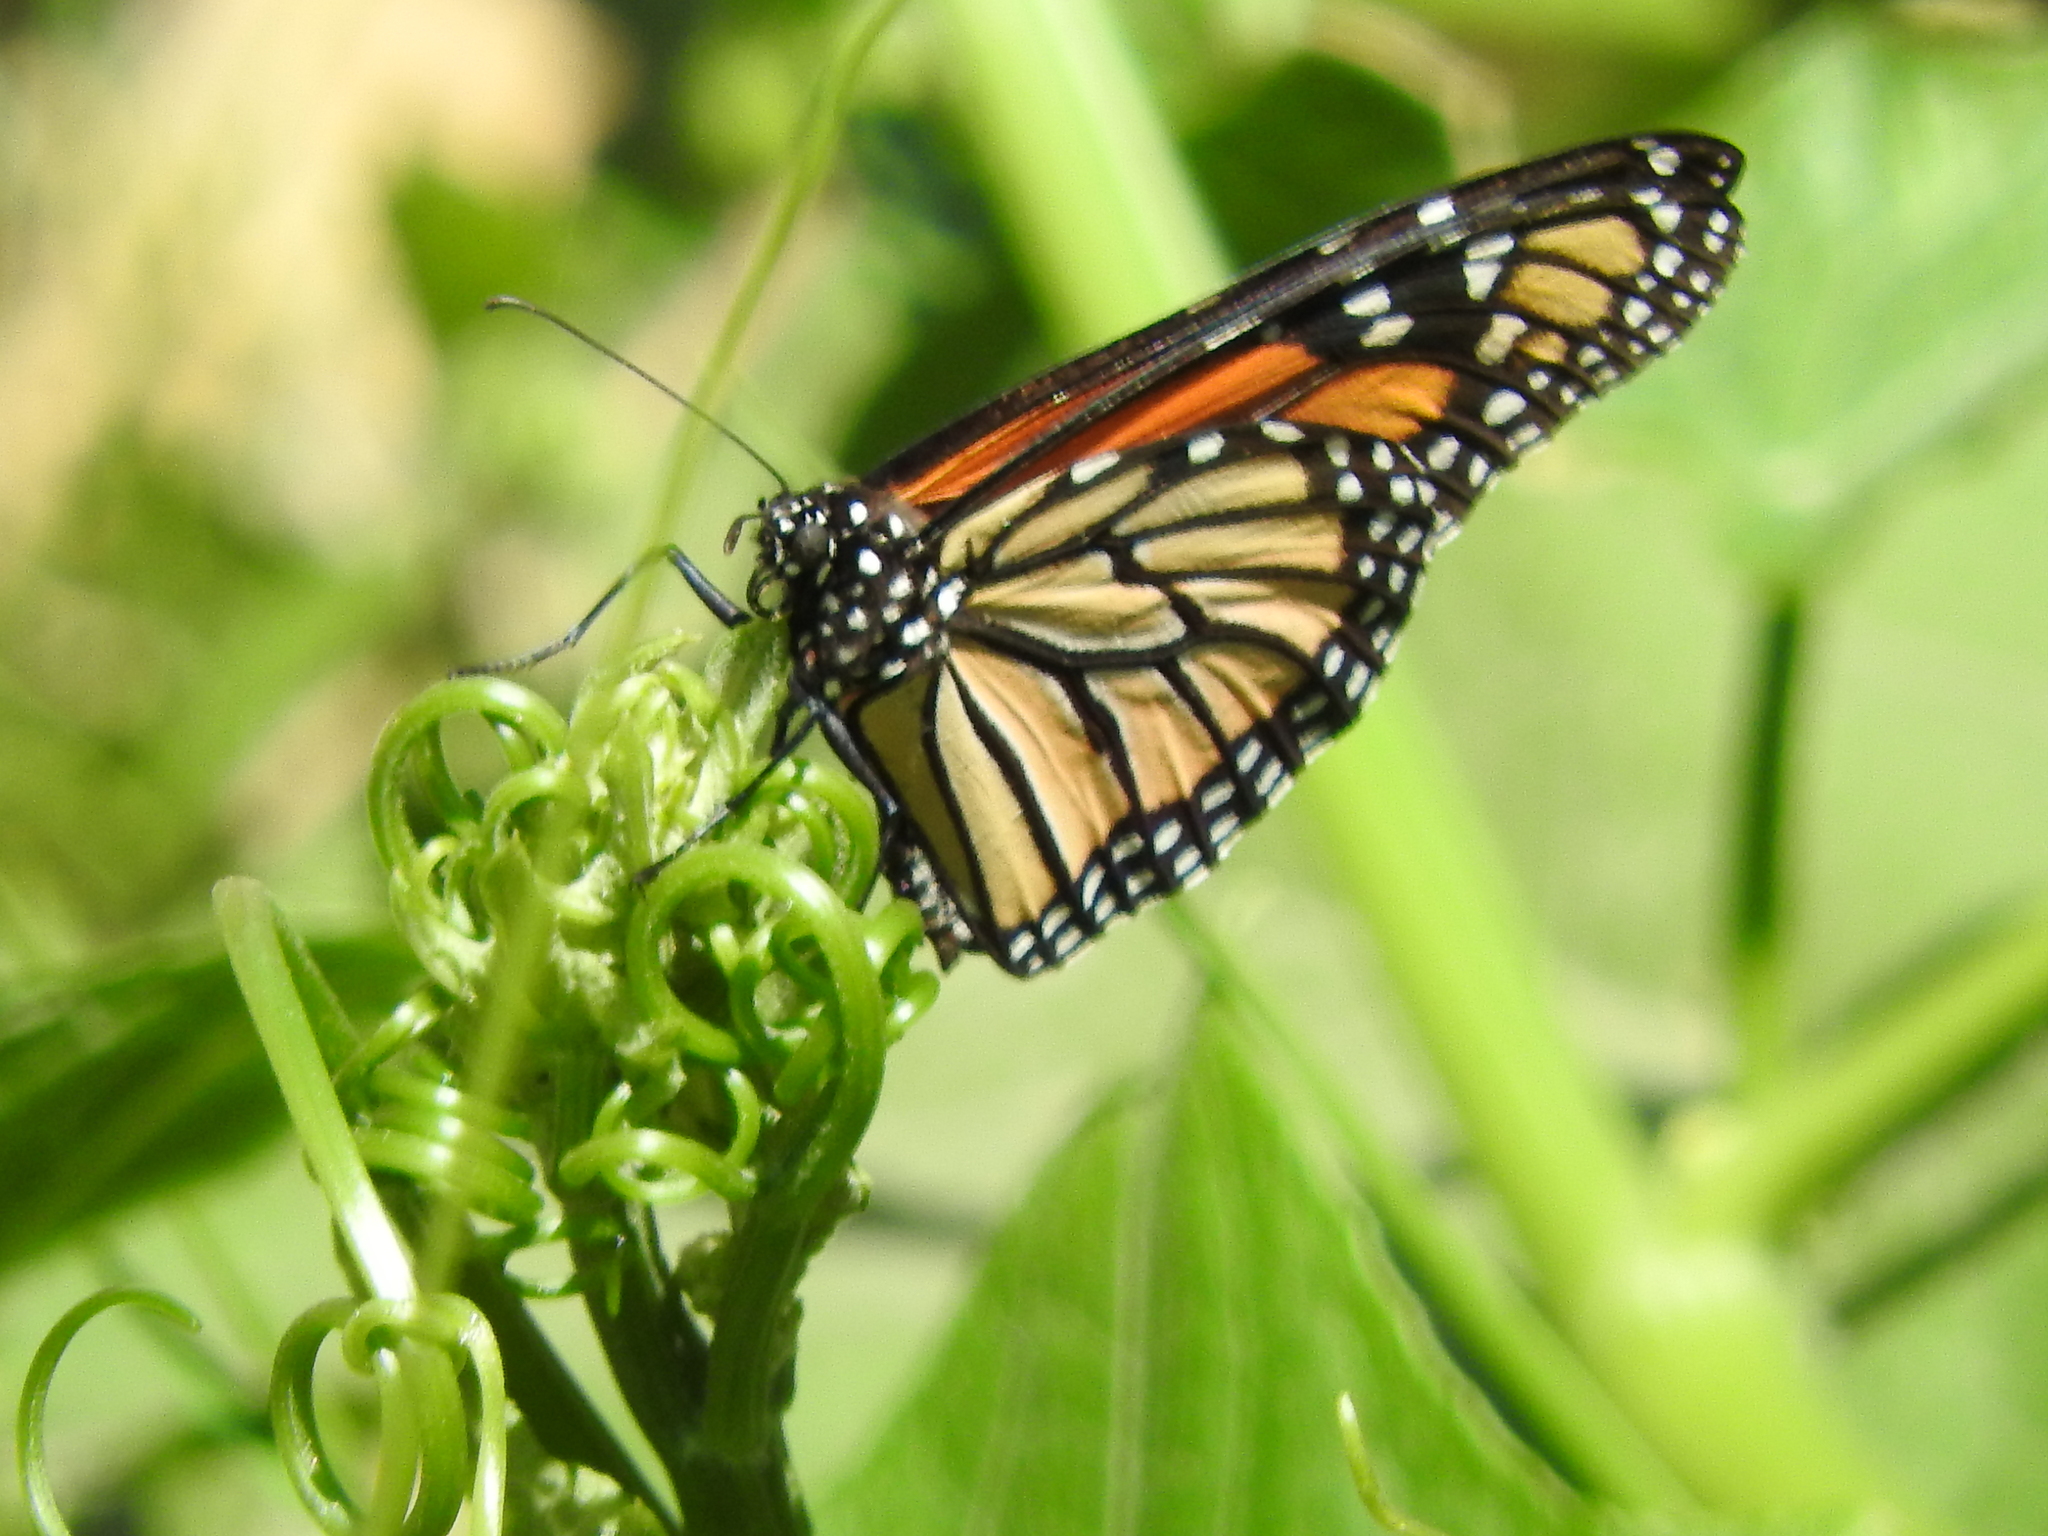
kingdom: Animalia
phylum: Arthropoda
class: Insecta
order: Lepidoptera
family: Nymphalidae
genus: Danaus
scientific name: Danaus plexippus
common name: Monarch
